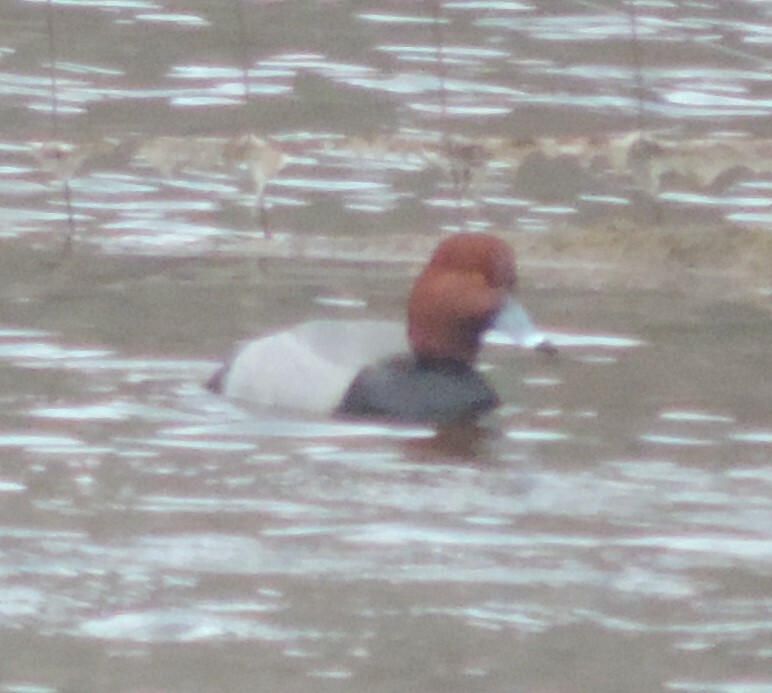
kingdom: Animalia
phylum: Chordata
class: Aves
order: Anseriformes
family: Anatidae
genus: Aythya
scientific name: Aythya americana
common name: Redhead
